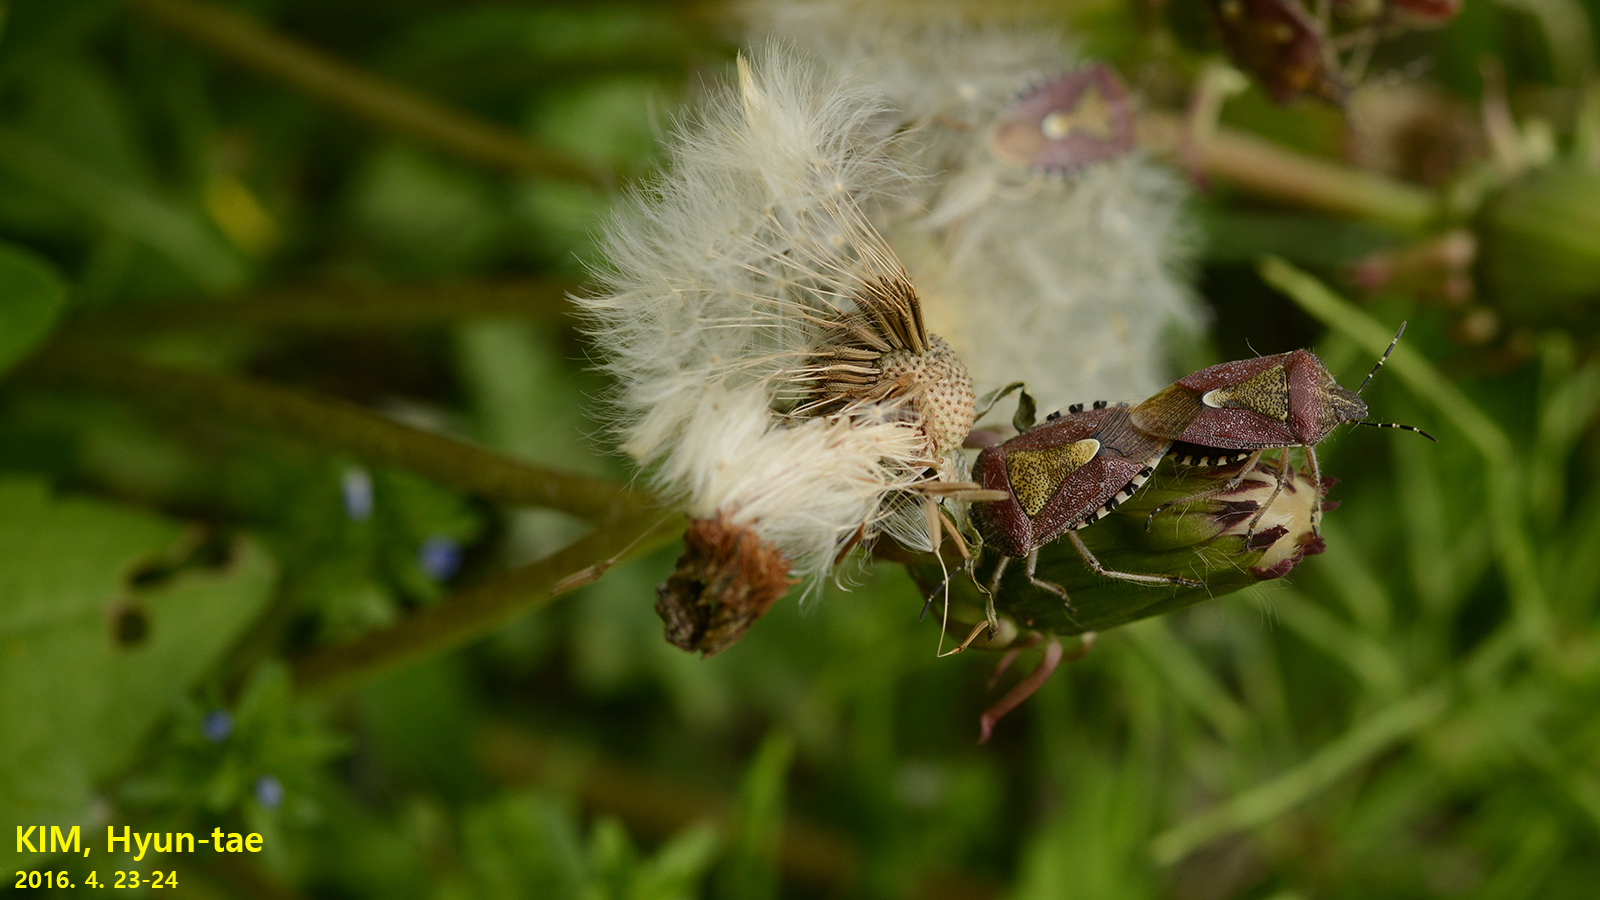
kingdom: Animalia
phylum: Arthropoda
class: Insecta
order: Hemiptera
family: Pentatomidae
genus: Dolycoris
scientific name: Dolycoris baccarum
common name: Sloe bug
